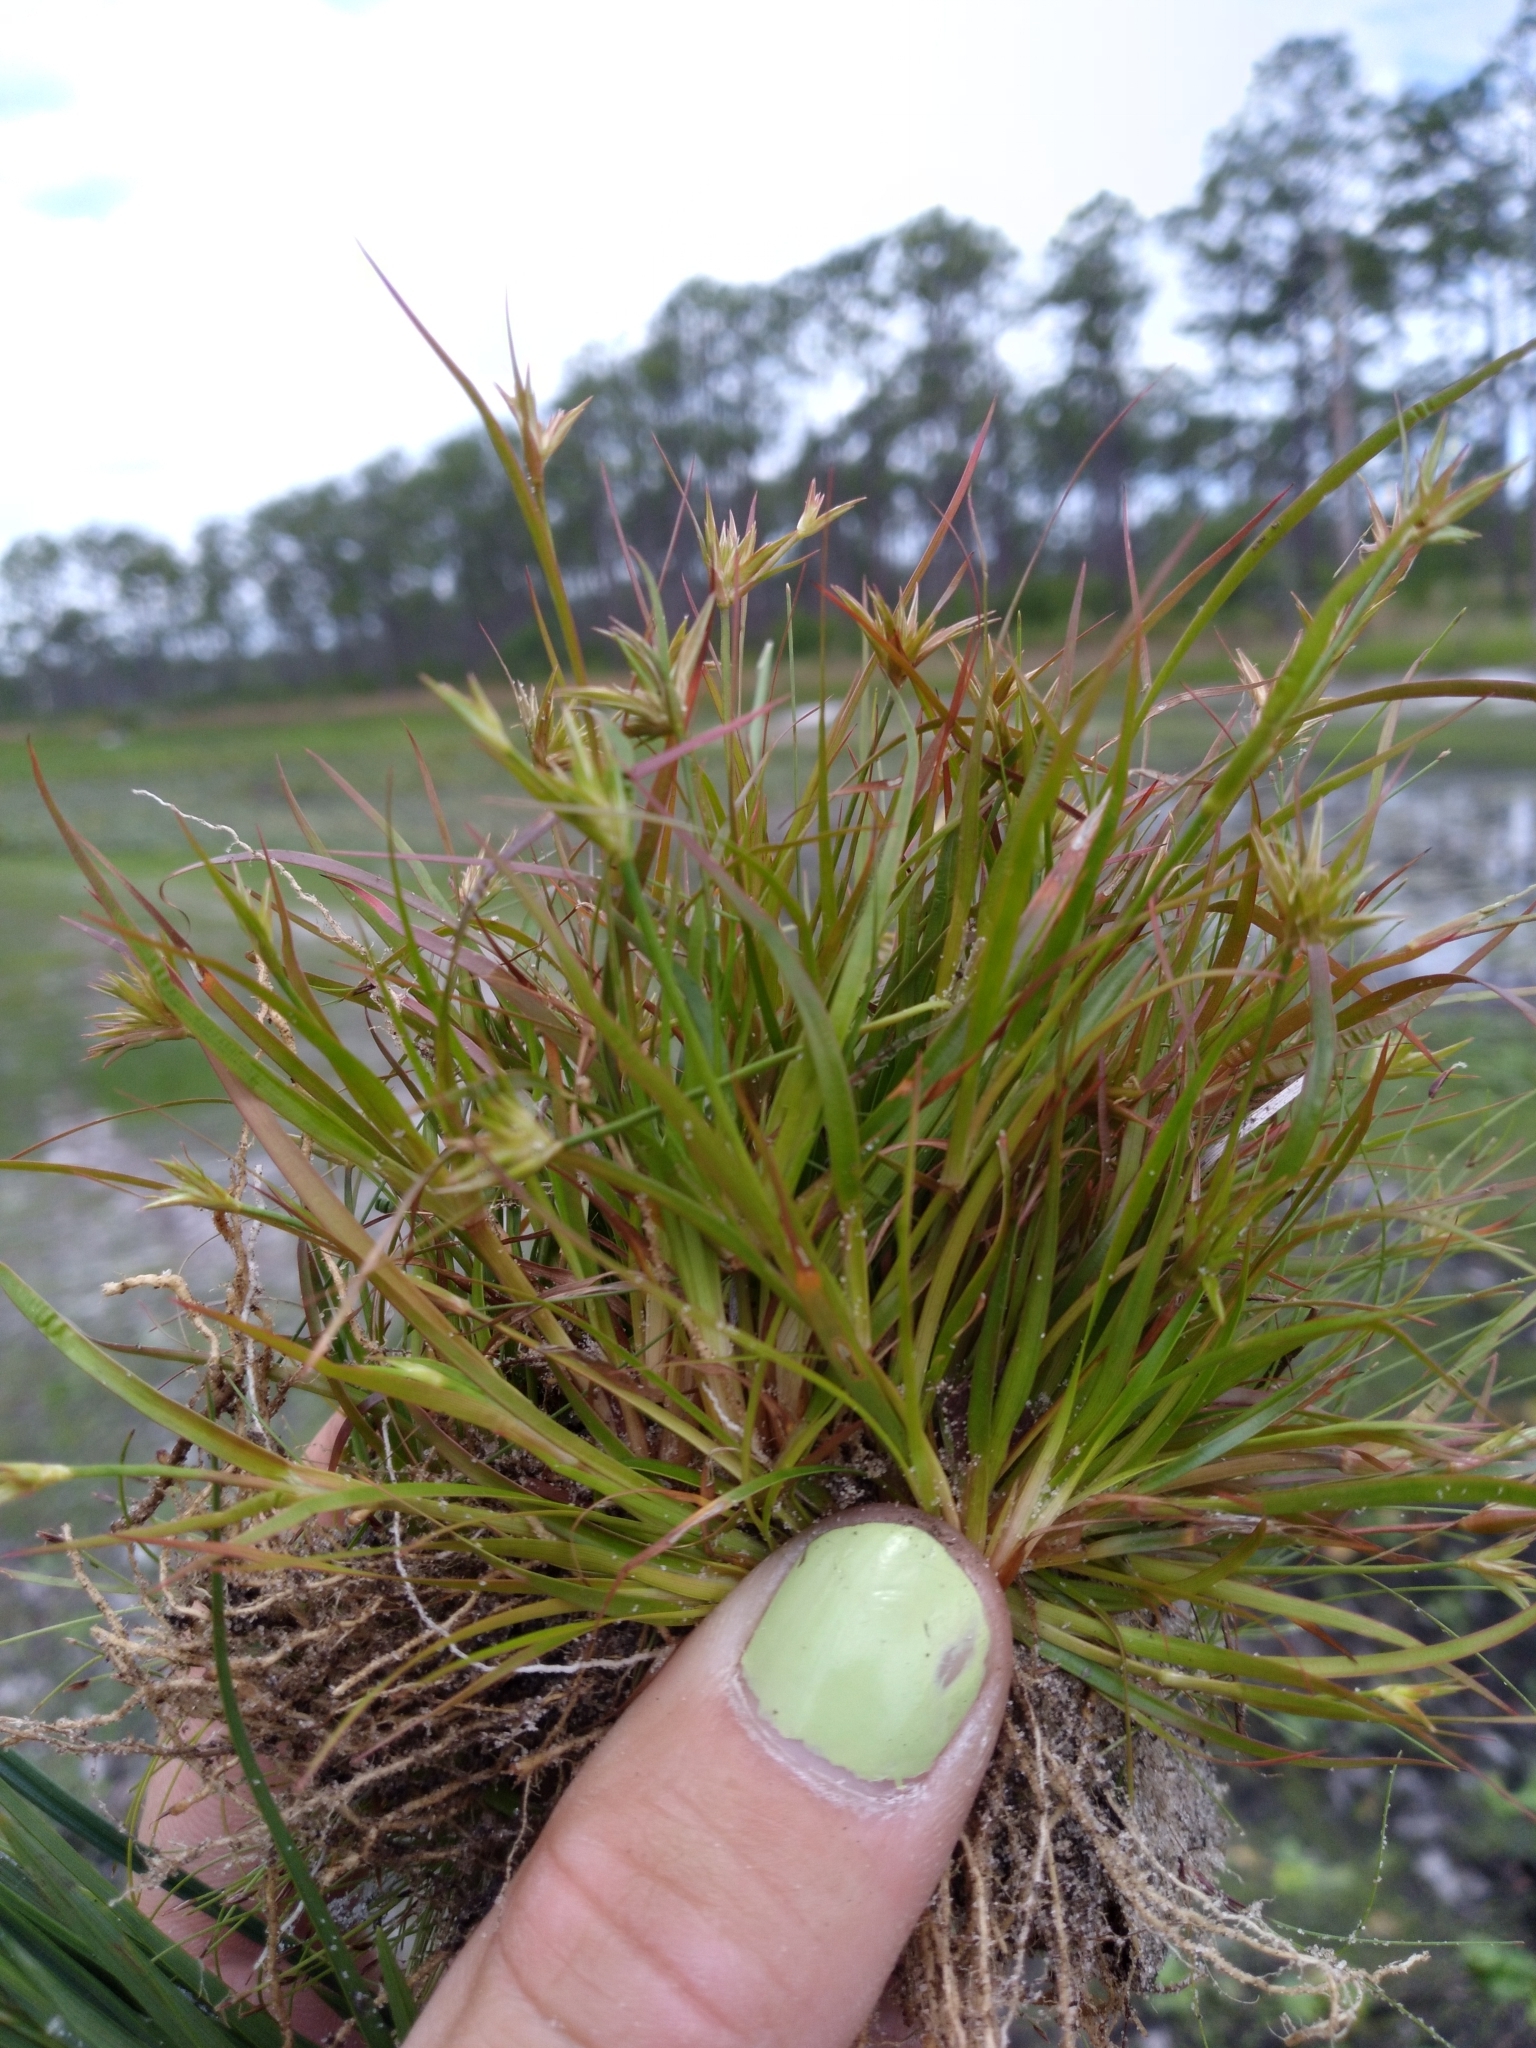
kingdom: Plantae
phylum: Tracheophyta
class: Liliopsida
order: Poales
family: Juncaceae
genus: Juncus
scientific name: Juncus repens
